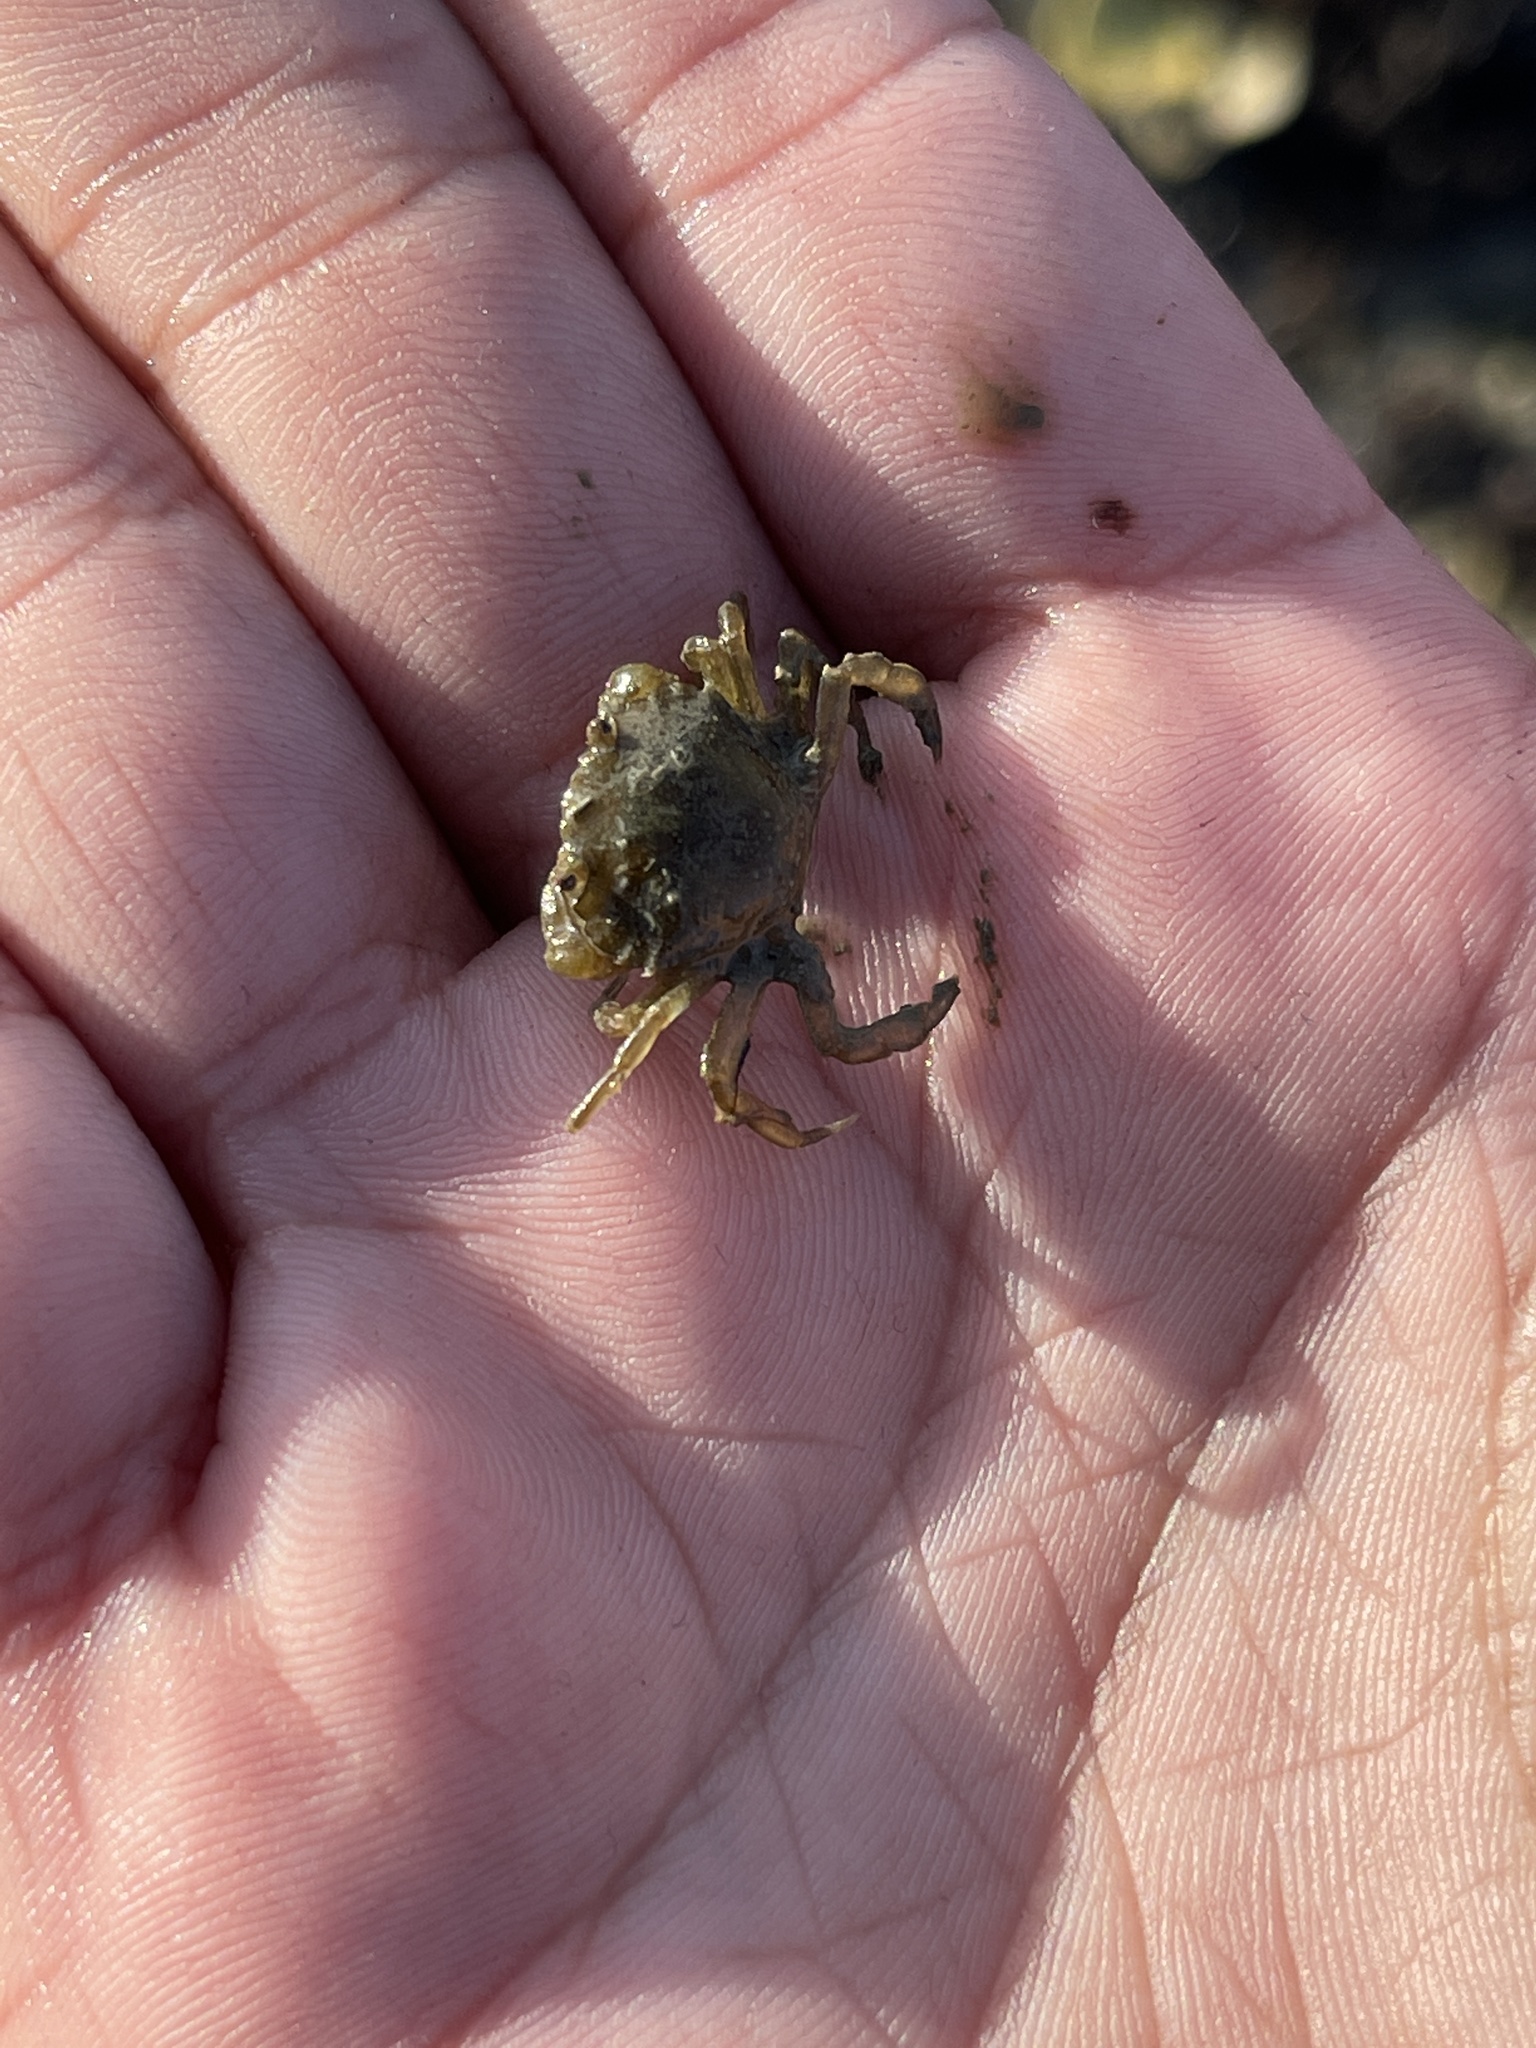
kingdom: Animalia
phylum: Arthropoda
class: Malacostraca
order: Decapoda
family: Carcinidae
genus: Carcinus
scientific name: Carcinus maenas
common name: European green crab
